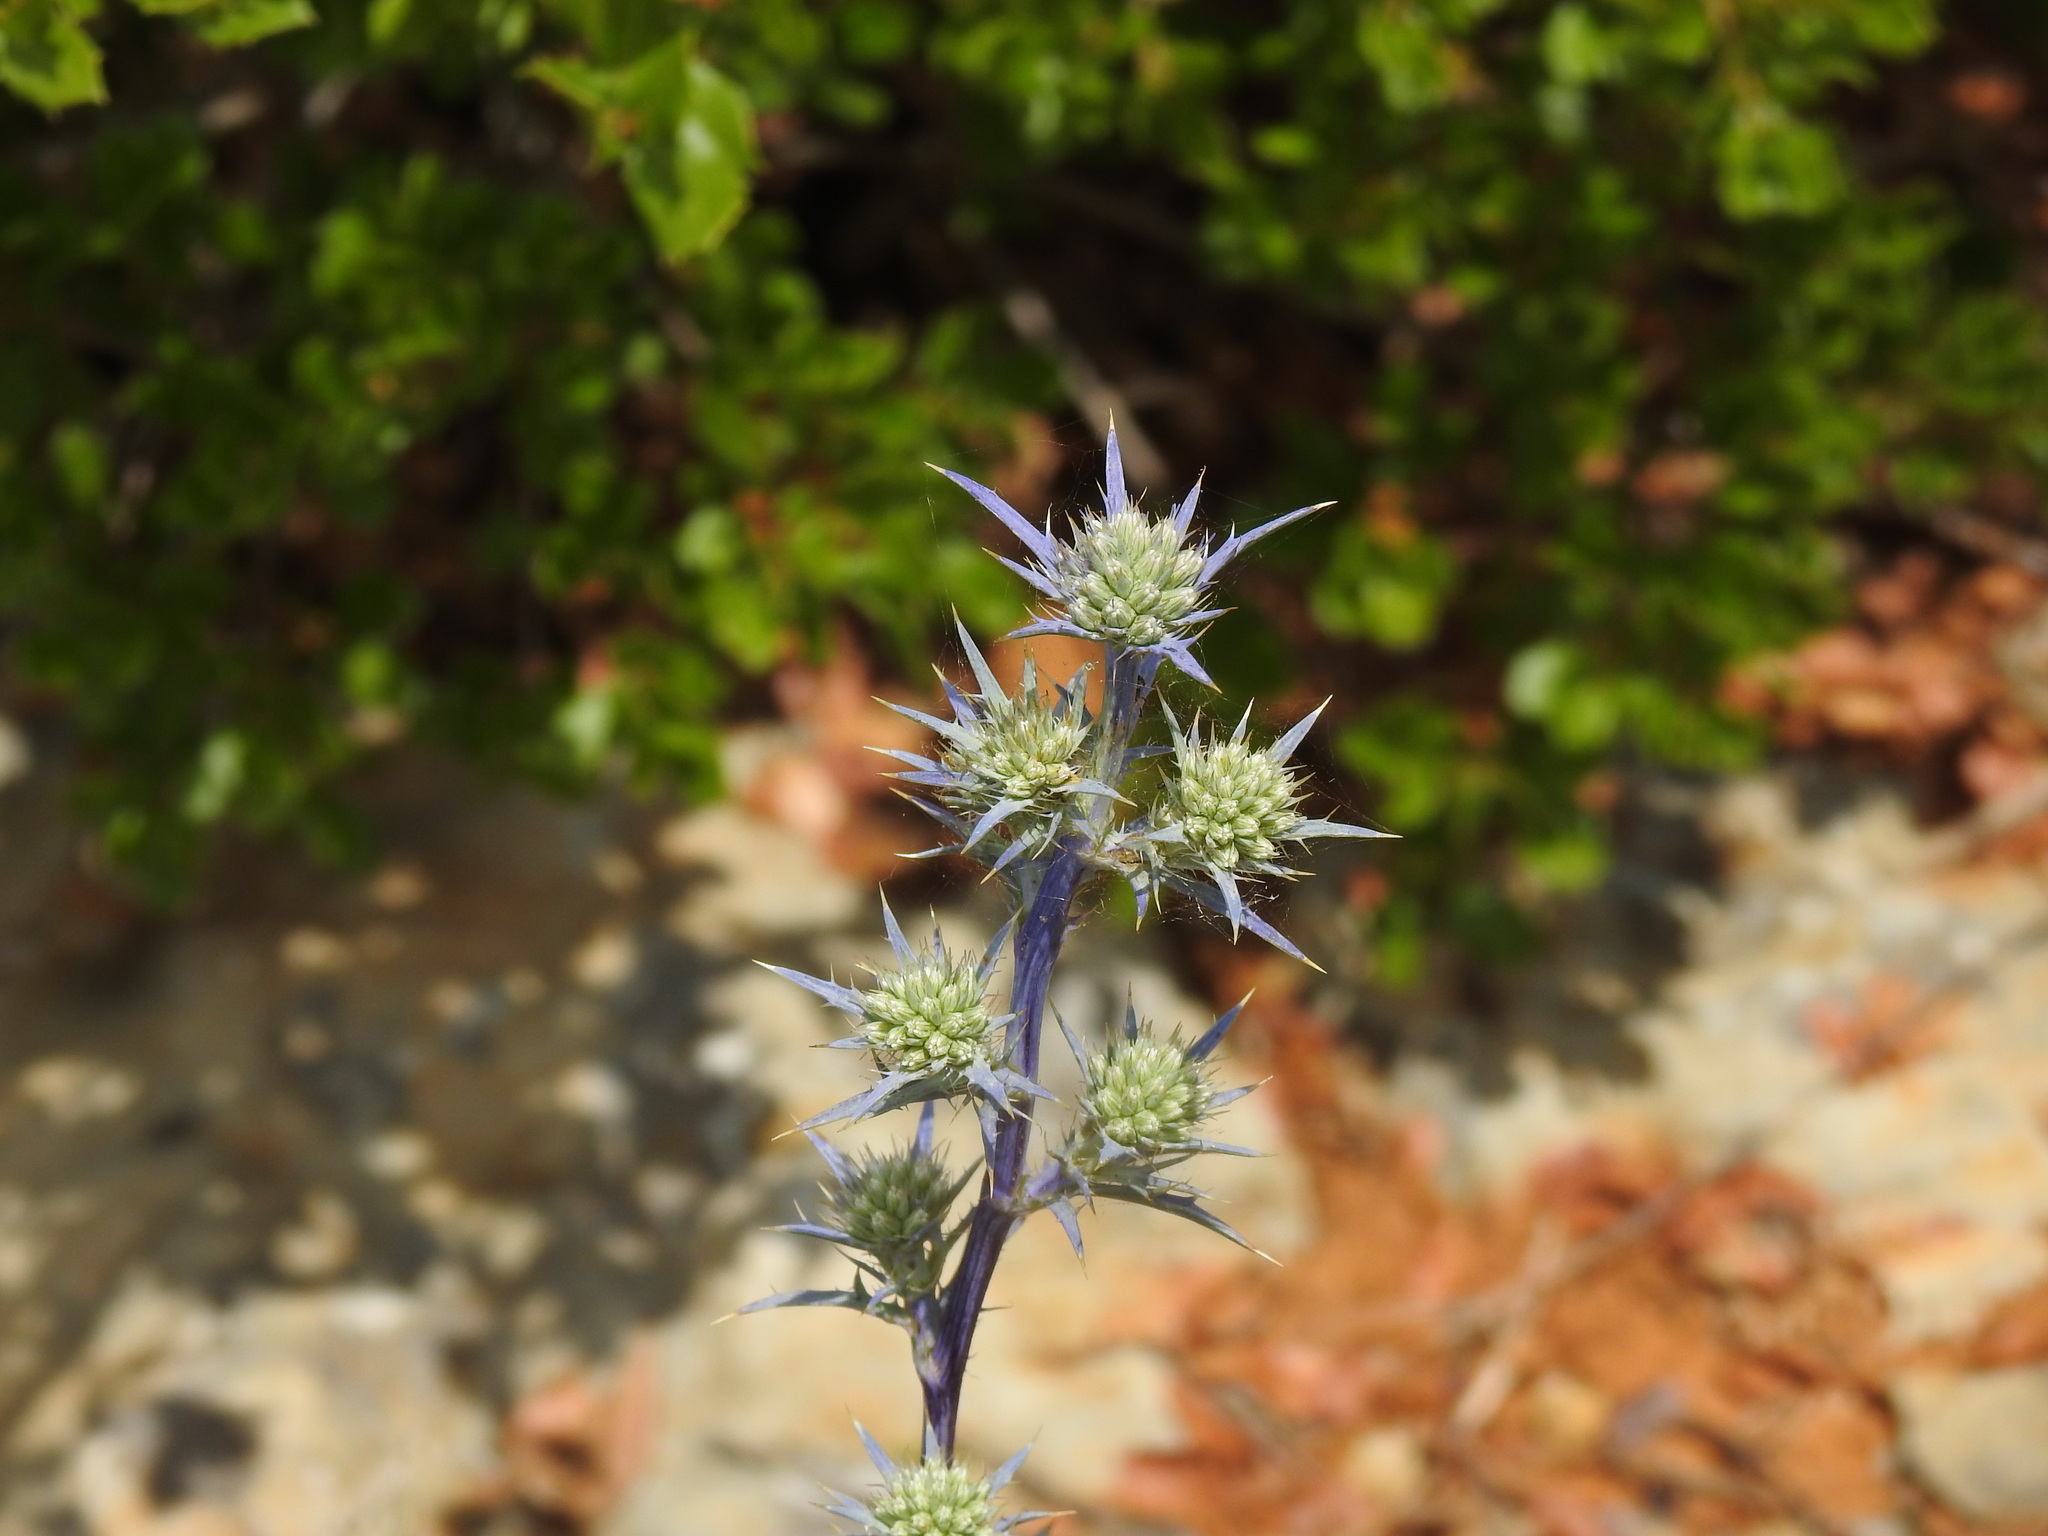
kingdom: Plantae
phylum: Tracheophyta
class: Magnoliopsida
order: Apiales
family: Apiaceae
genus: Eryngium
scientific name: Eryngium dilatatum
